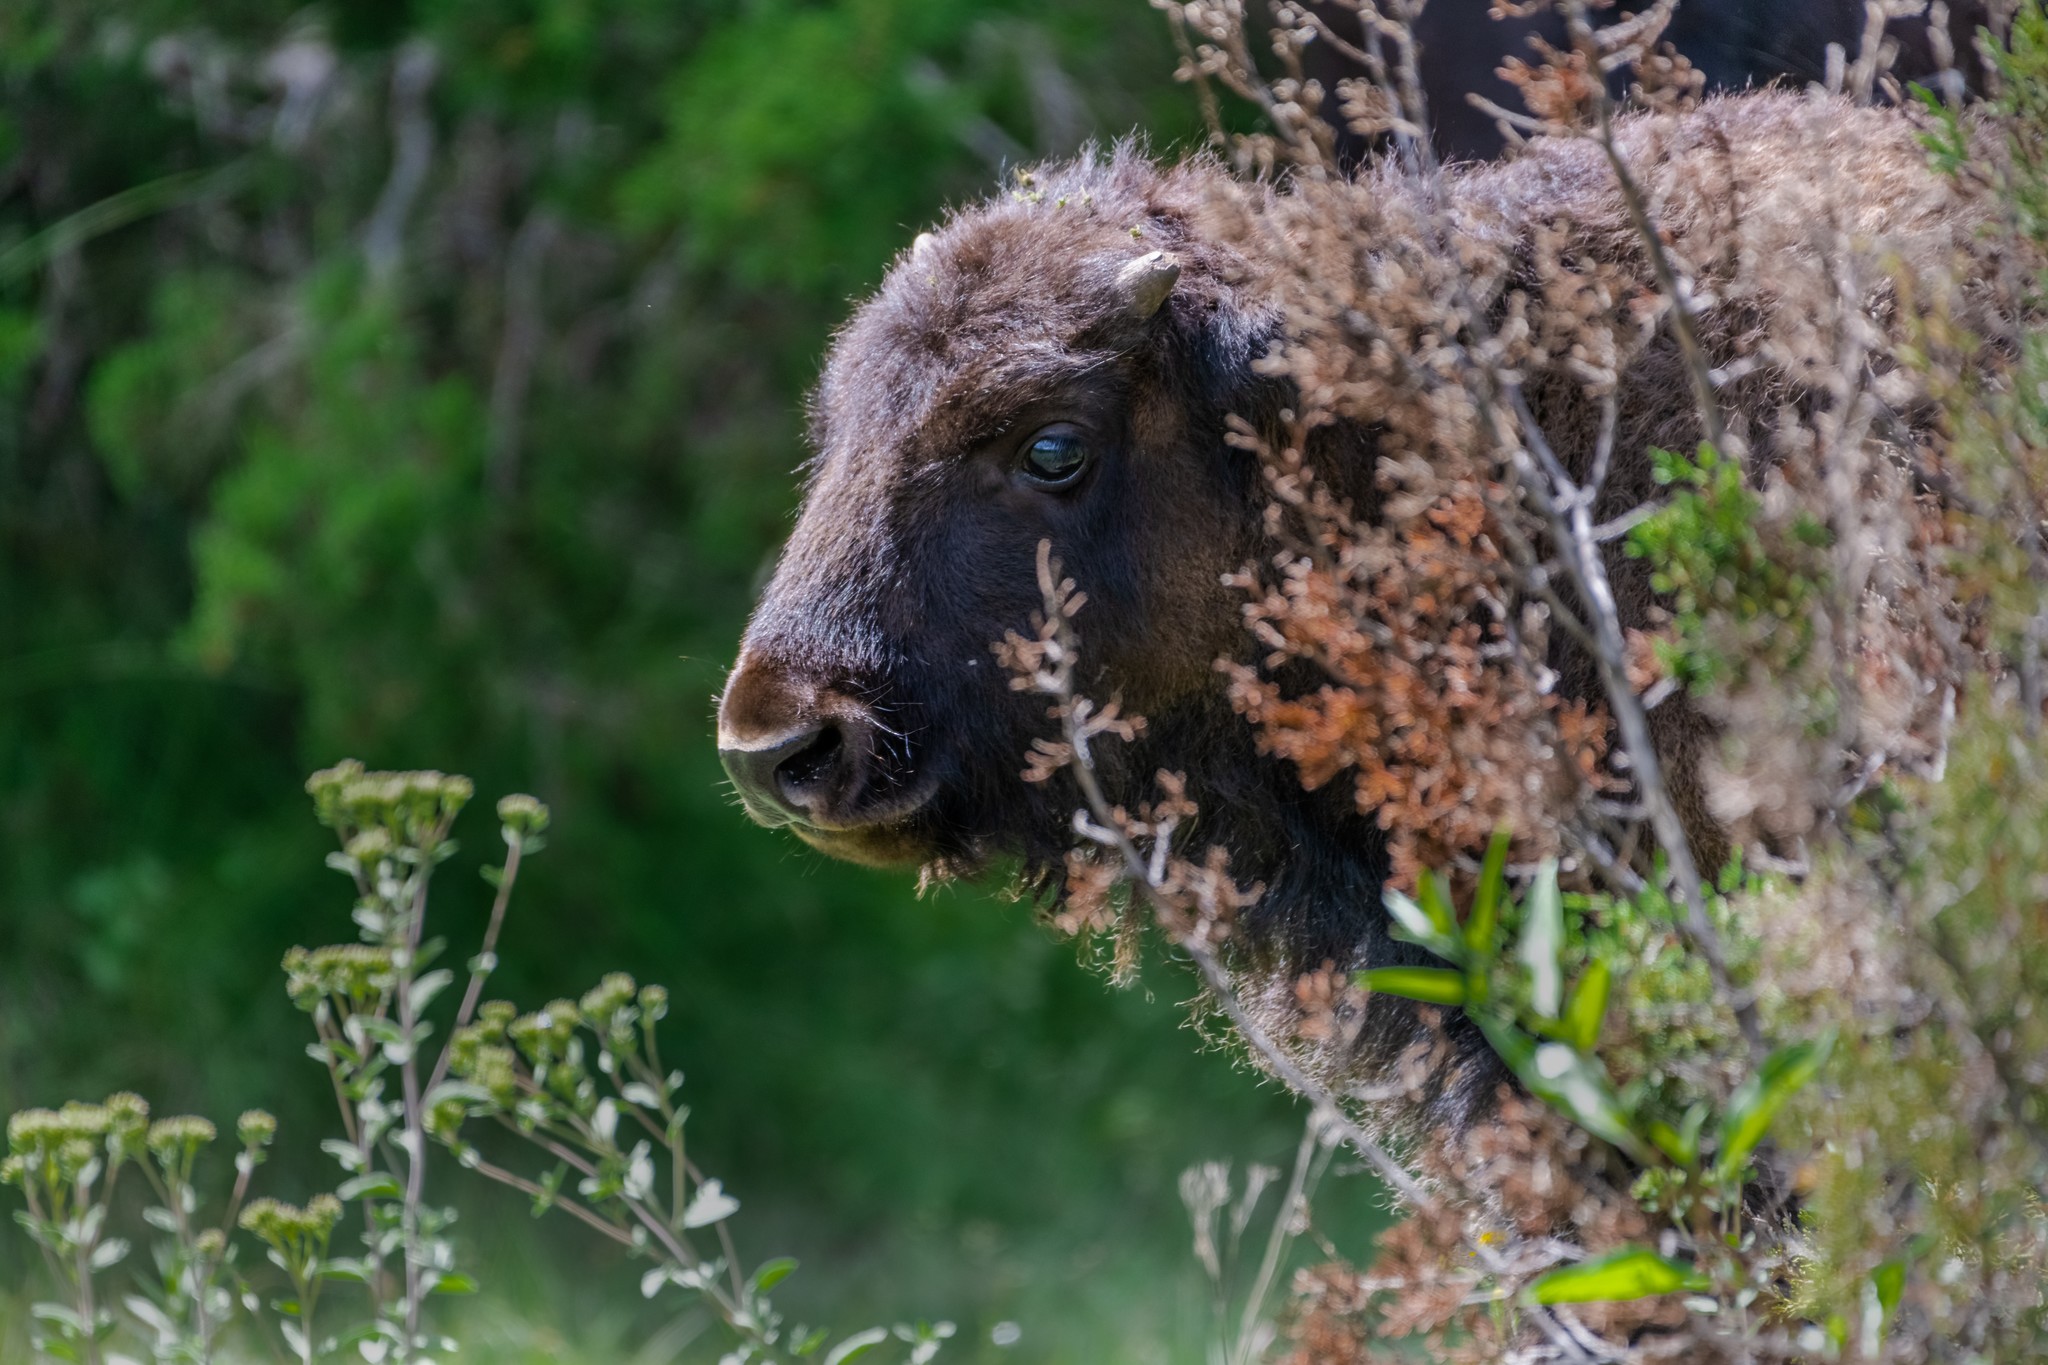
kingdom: Animalia
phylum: Chordata
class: Mammalia
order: Artiodactyla
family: Bovidae
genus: Bison
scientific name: Bison bison
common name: American bison
